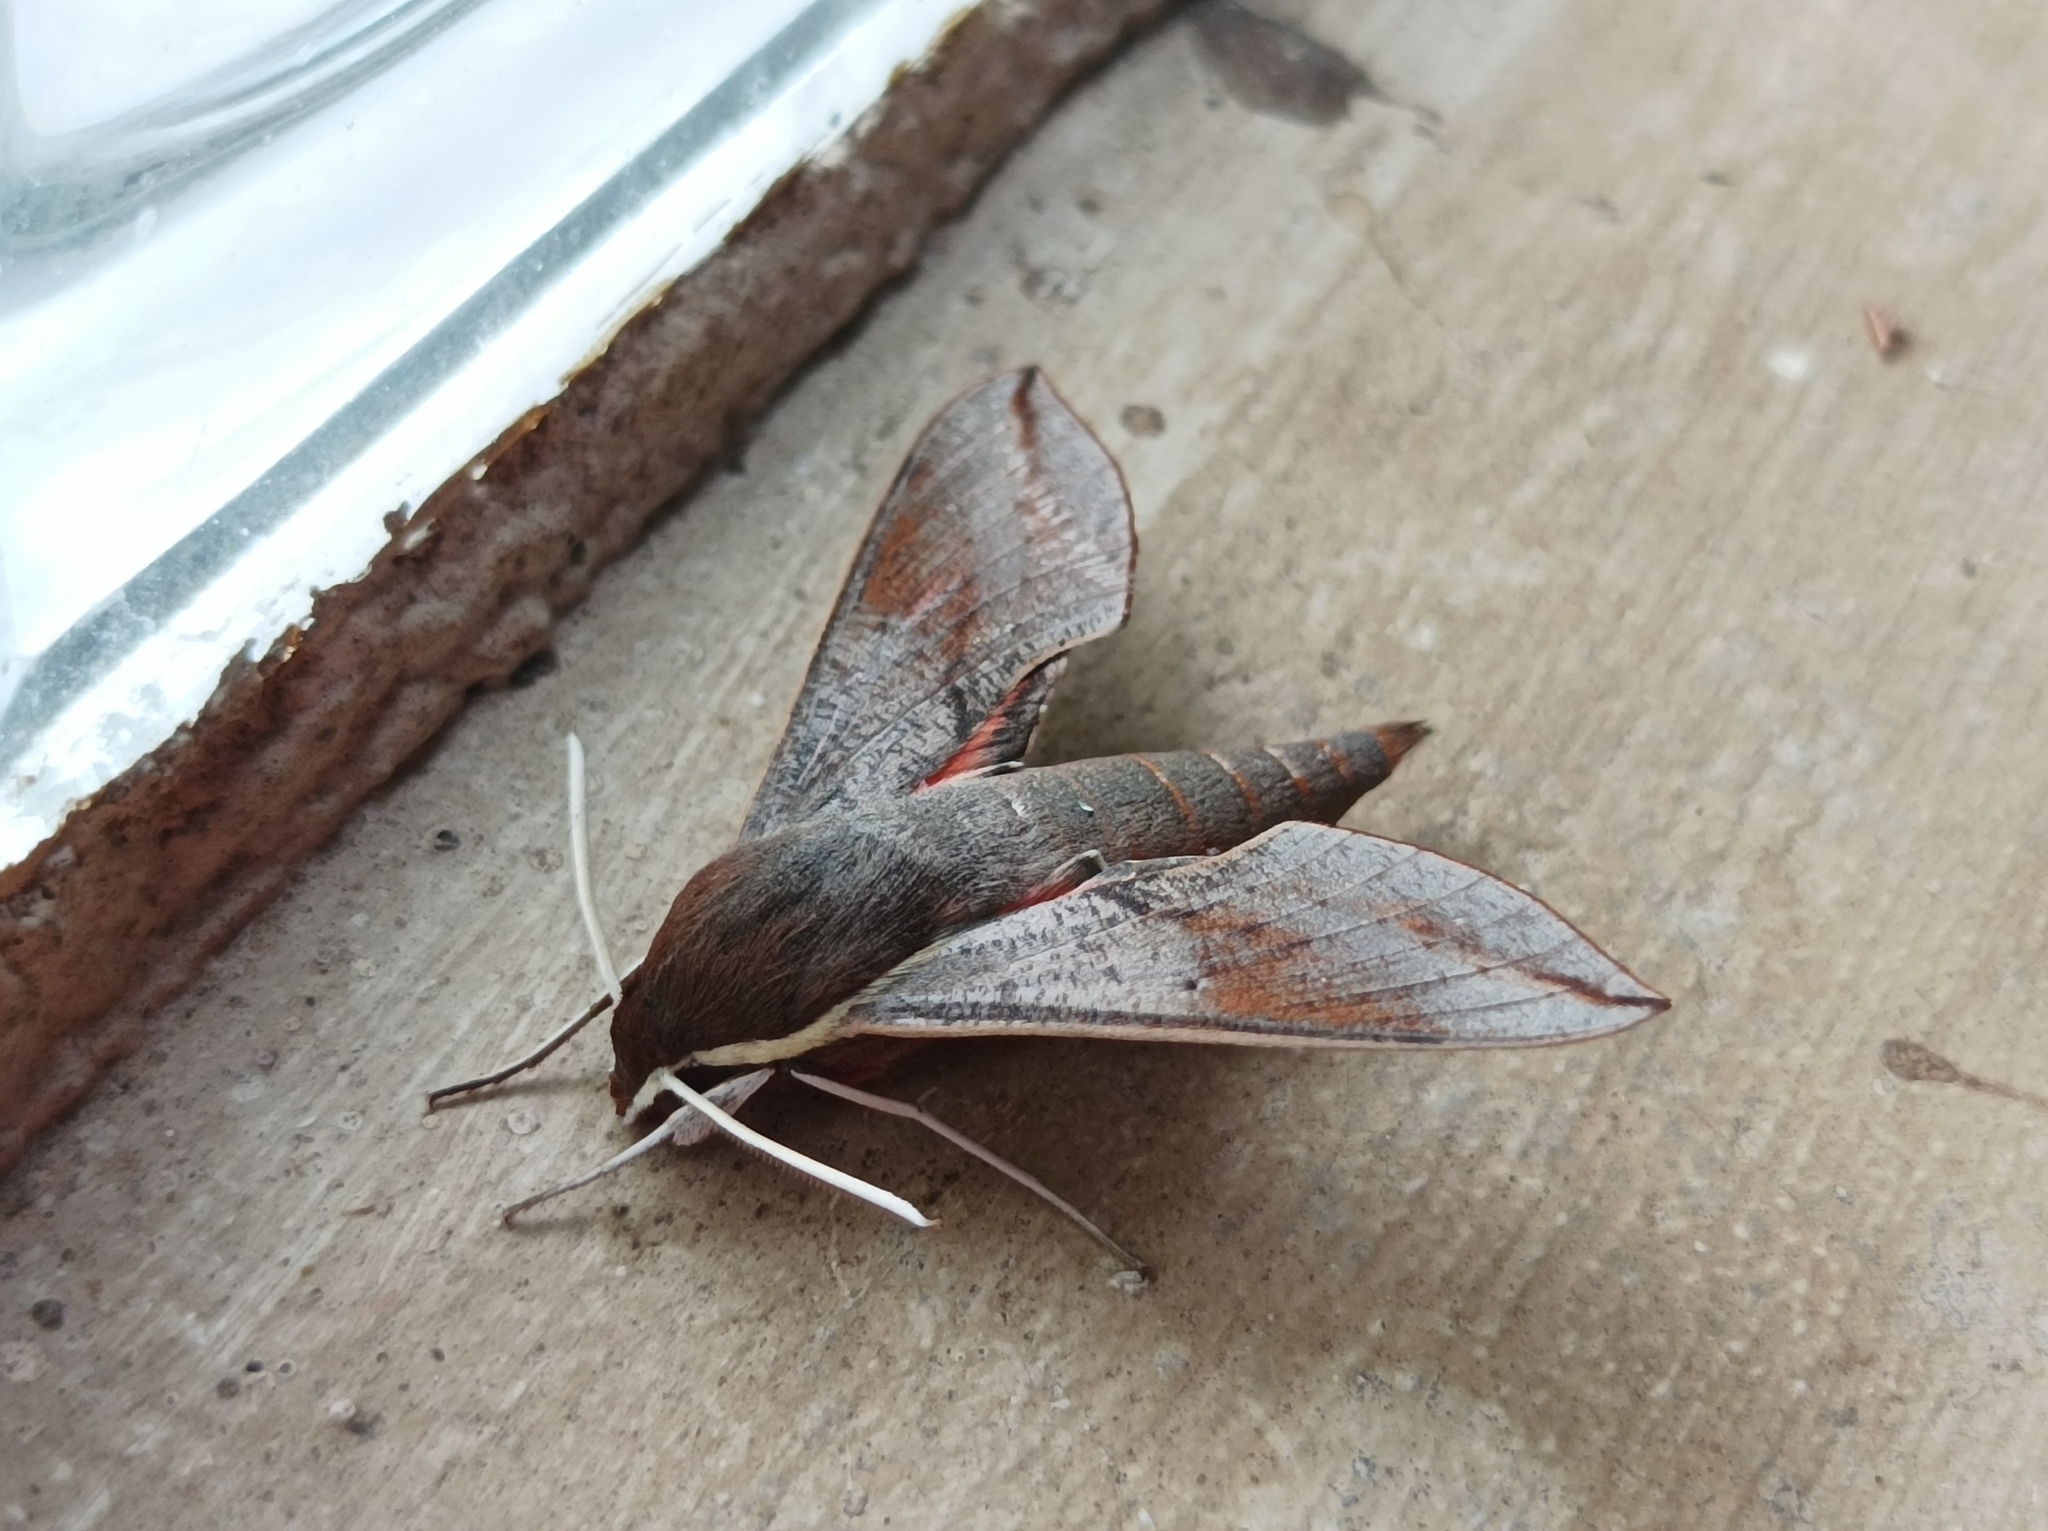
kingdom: Animalia
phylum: Arthropoda
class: Insecta
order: Lepidoptera
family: Sphingidae
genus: Hippotion
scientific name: Hippotion scrofa
